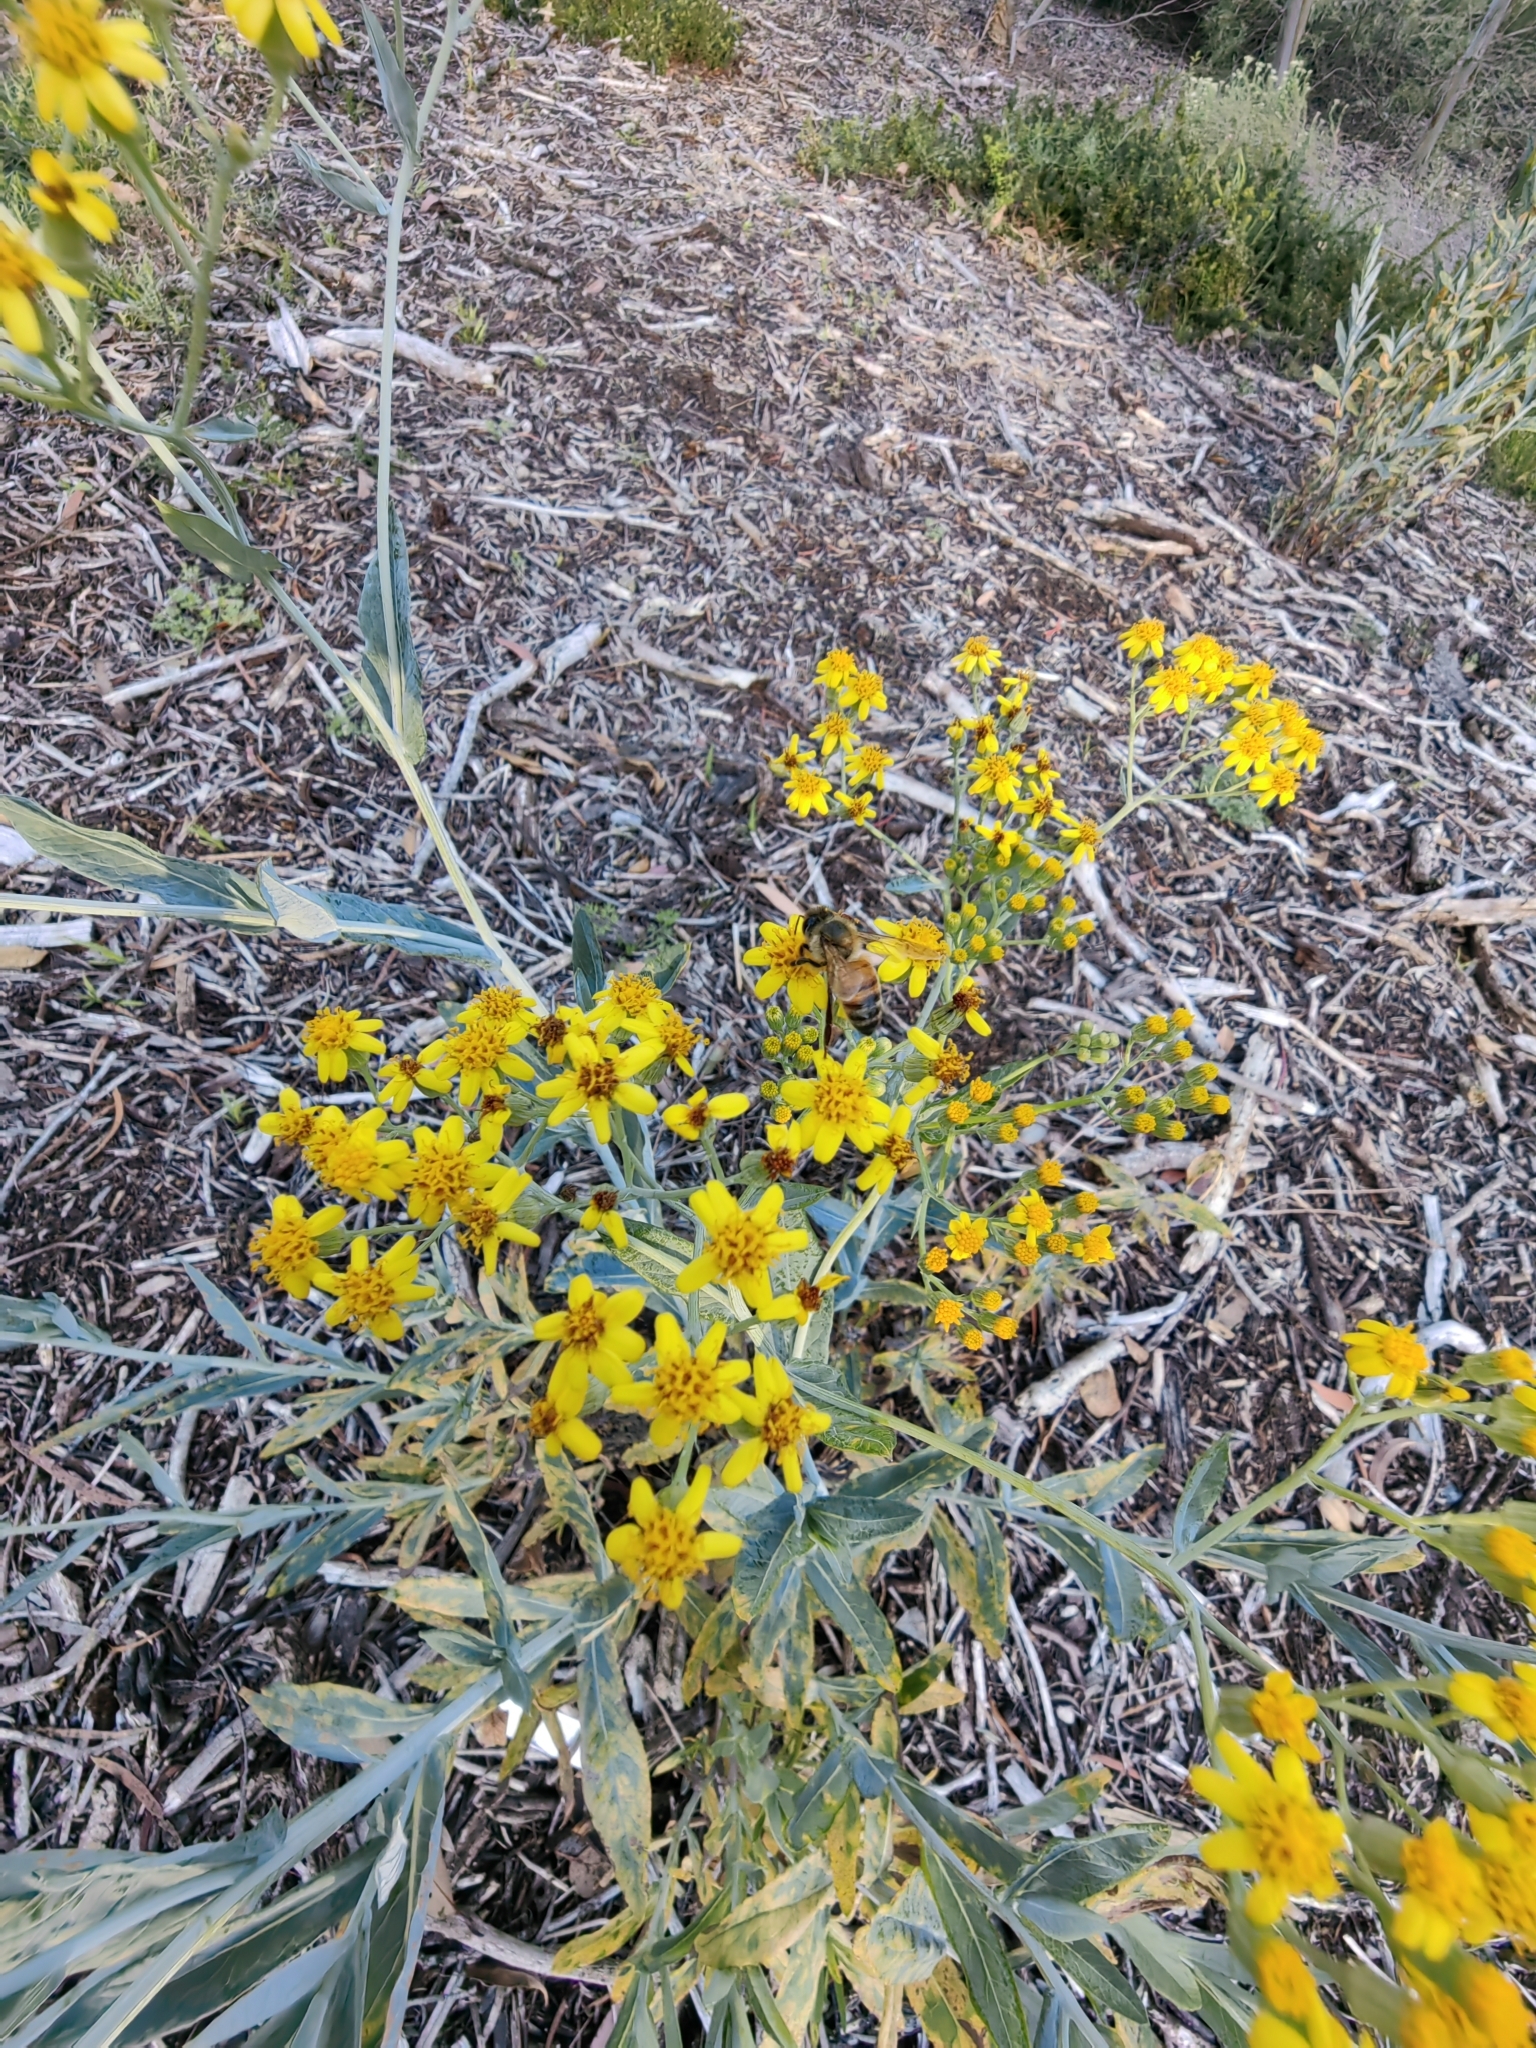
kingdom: Animalia
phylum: Arthropoda
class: Insecta
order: Hymenoptera
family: Apidae
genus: Apis
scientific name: Apis mellifera
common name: Honey bee
